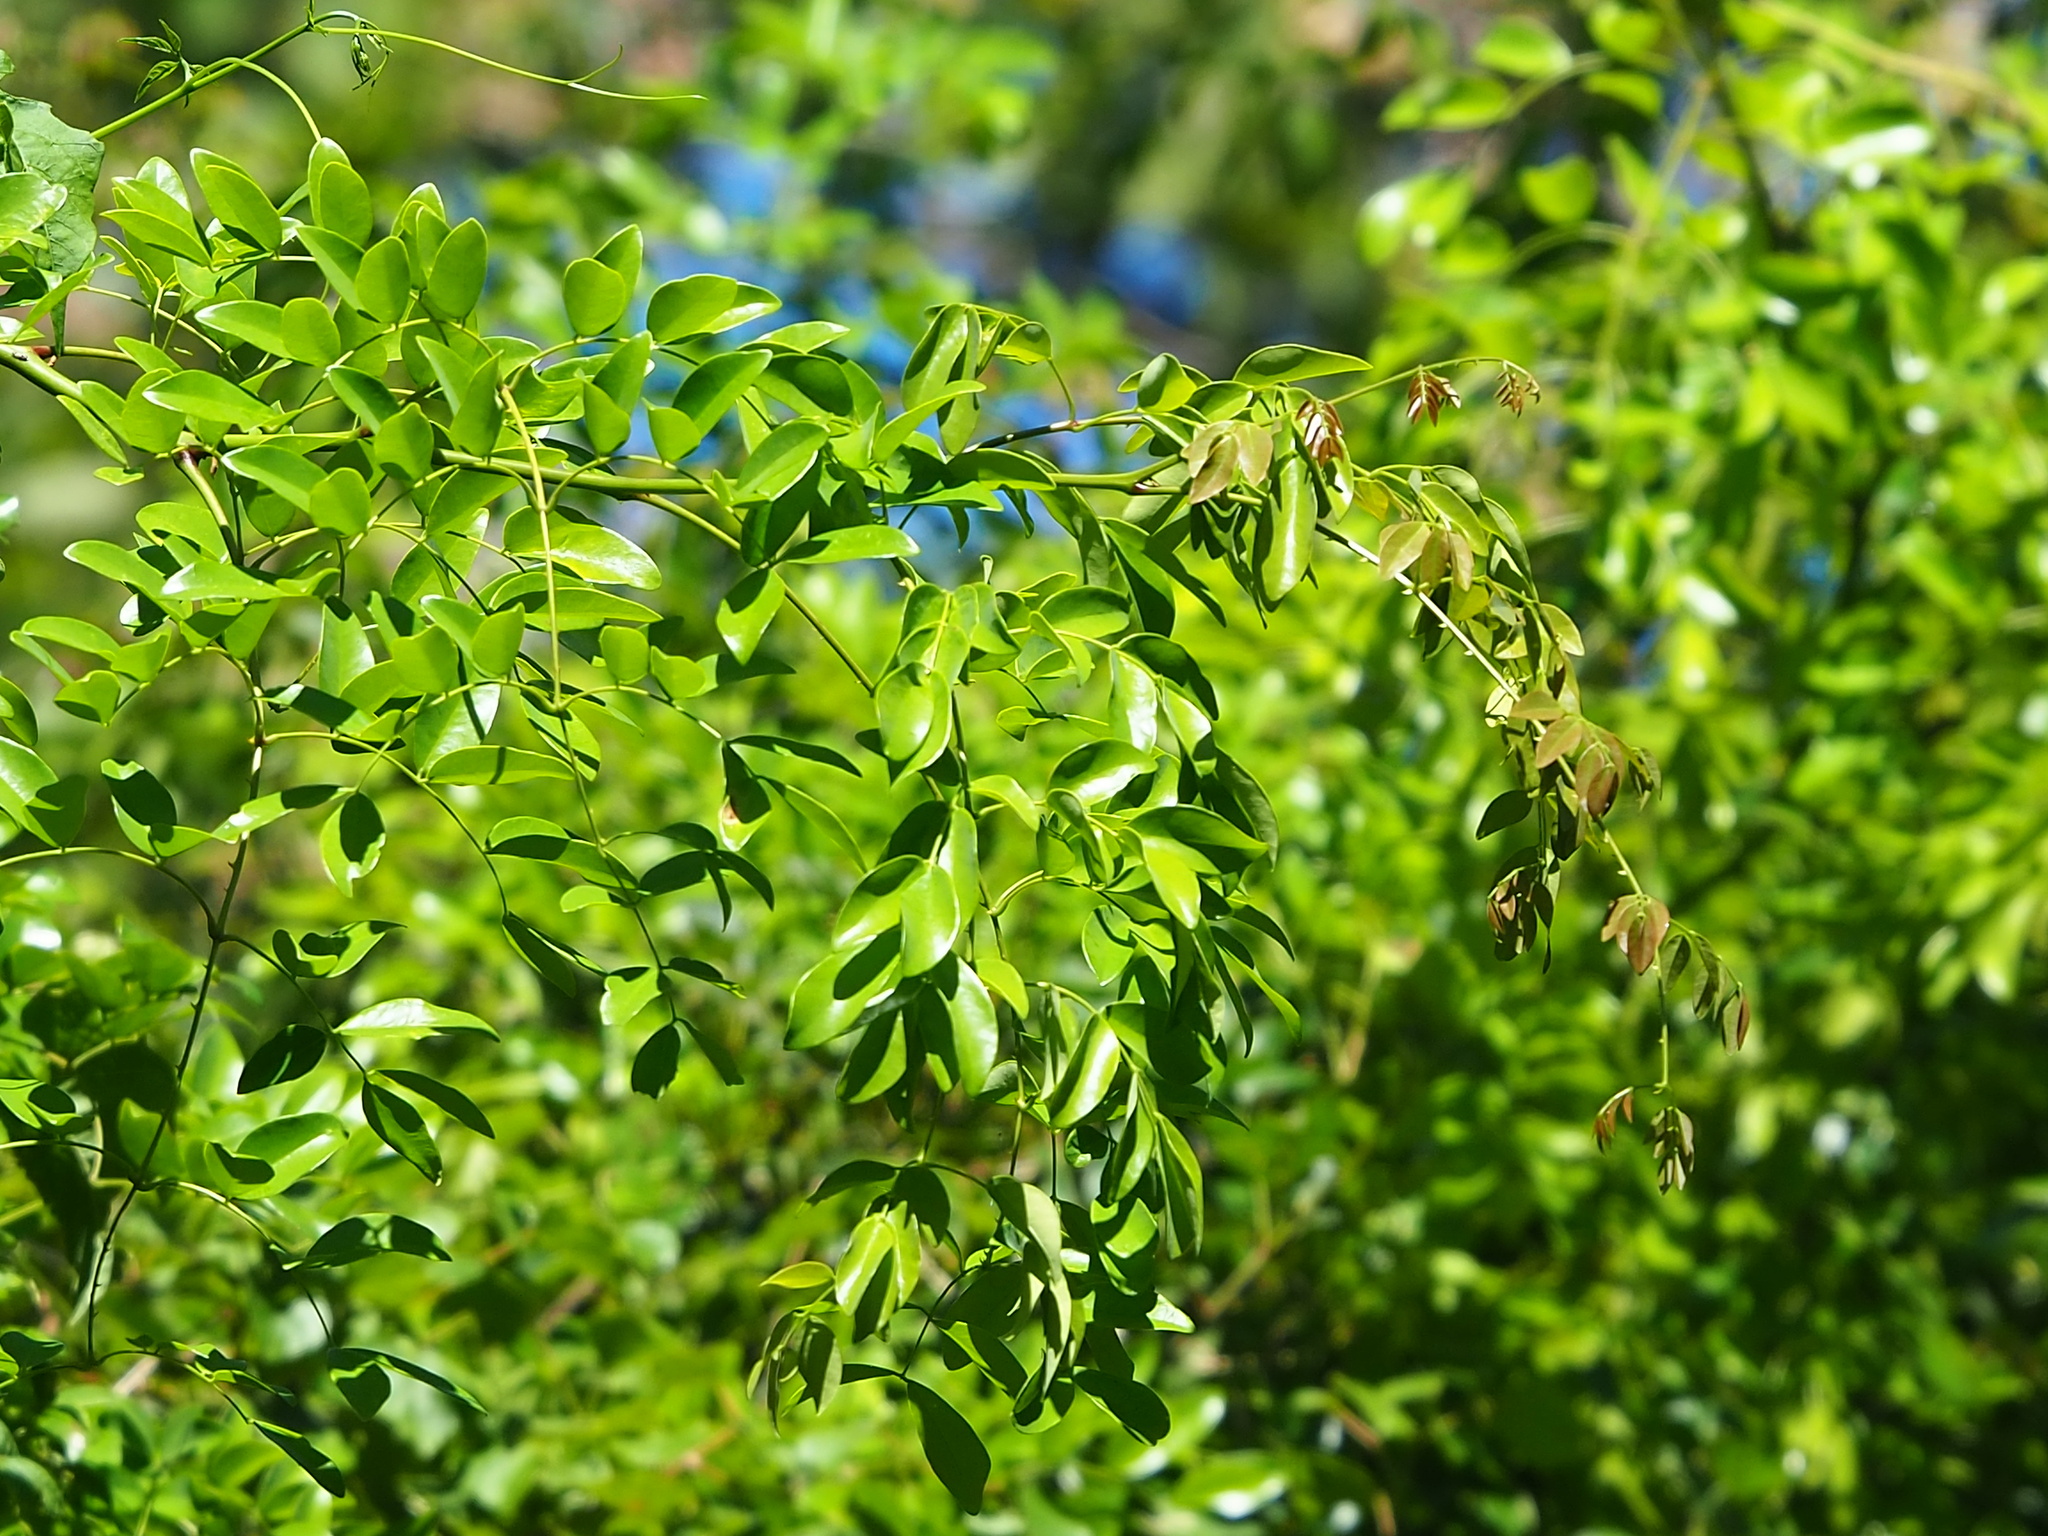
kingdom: Plantae
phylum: Tracheophyta
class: Magnoliopsida
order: Fabales
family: Fabaceae
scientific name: Fabaceae
